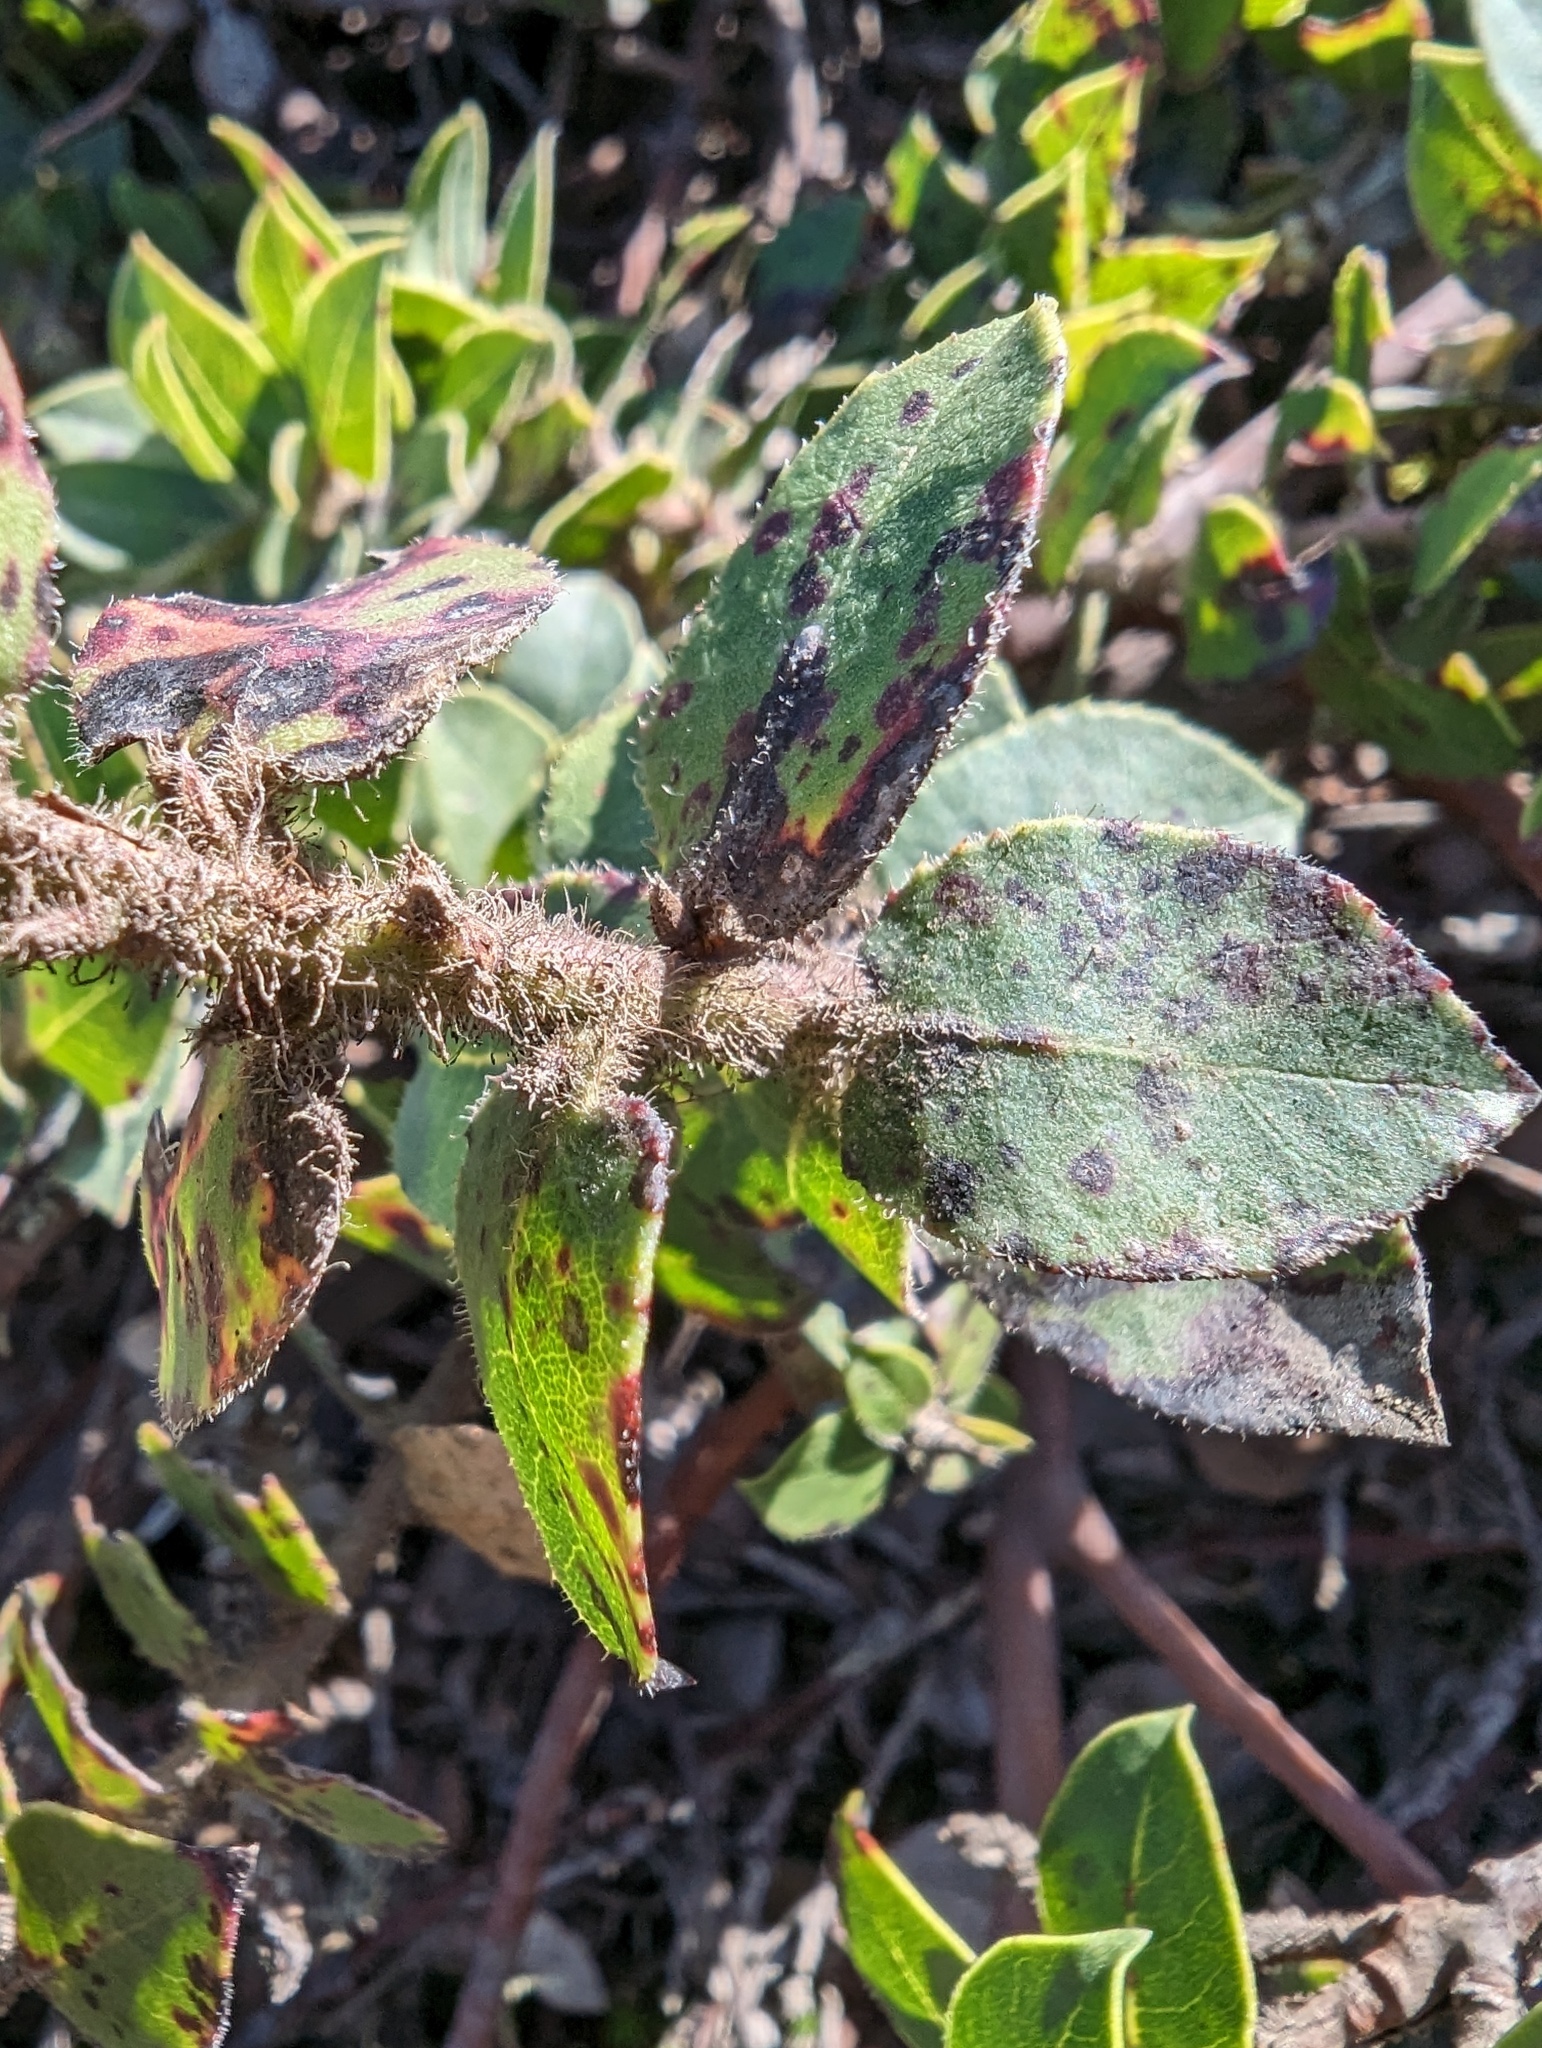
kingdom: Plantae
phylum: Tracheophyta
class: Magnoliopsida
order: Ericales
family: Ericaceae
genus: Arctostaphylos
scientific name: Arctostaphylos imbricata
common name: San bruno mountain manzanita
